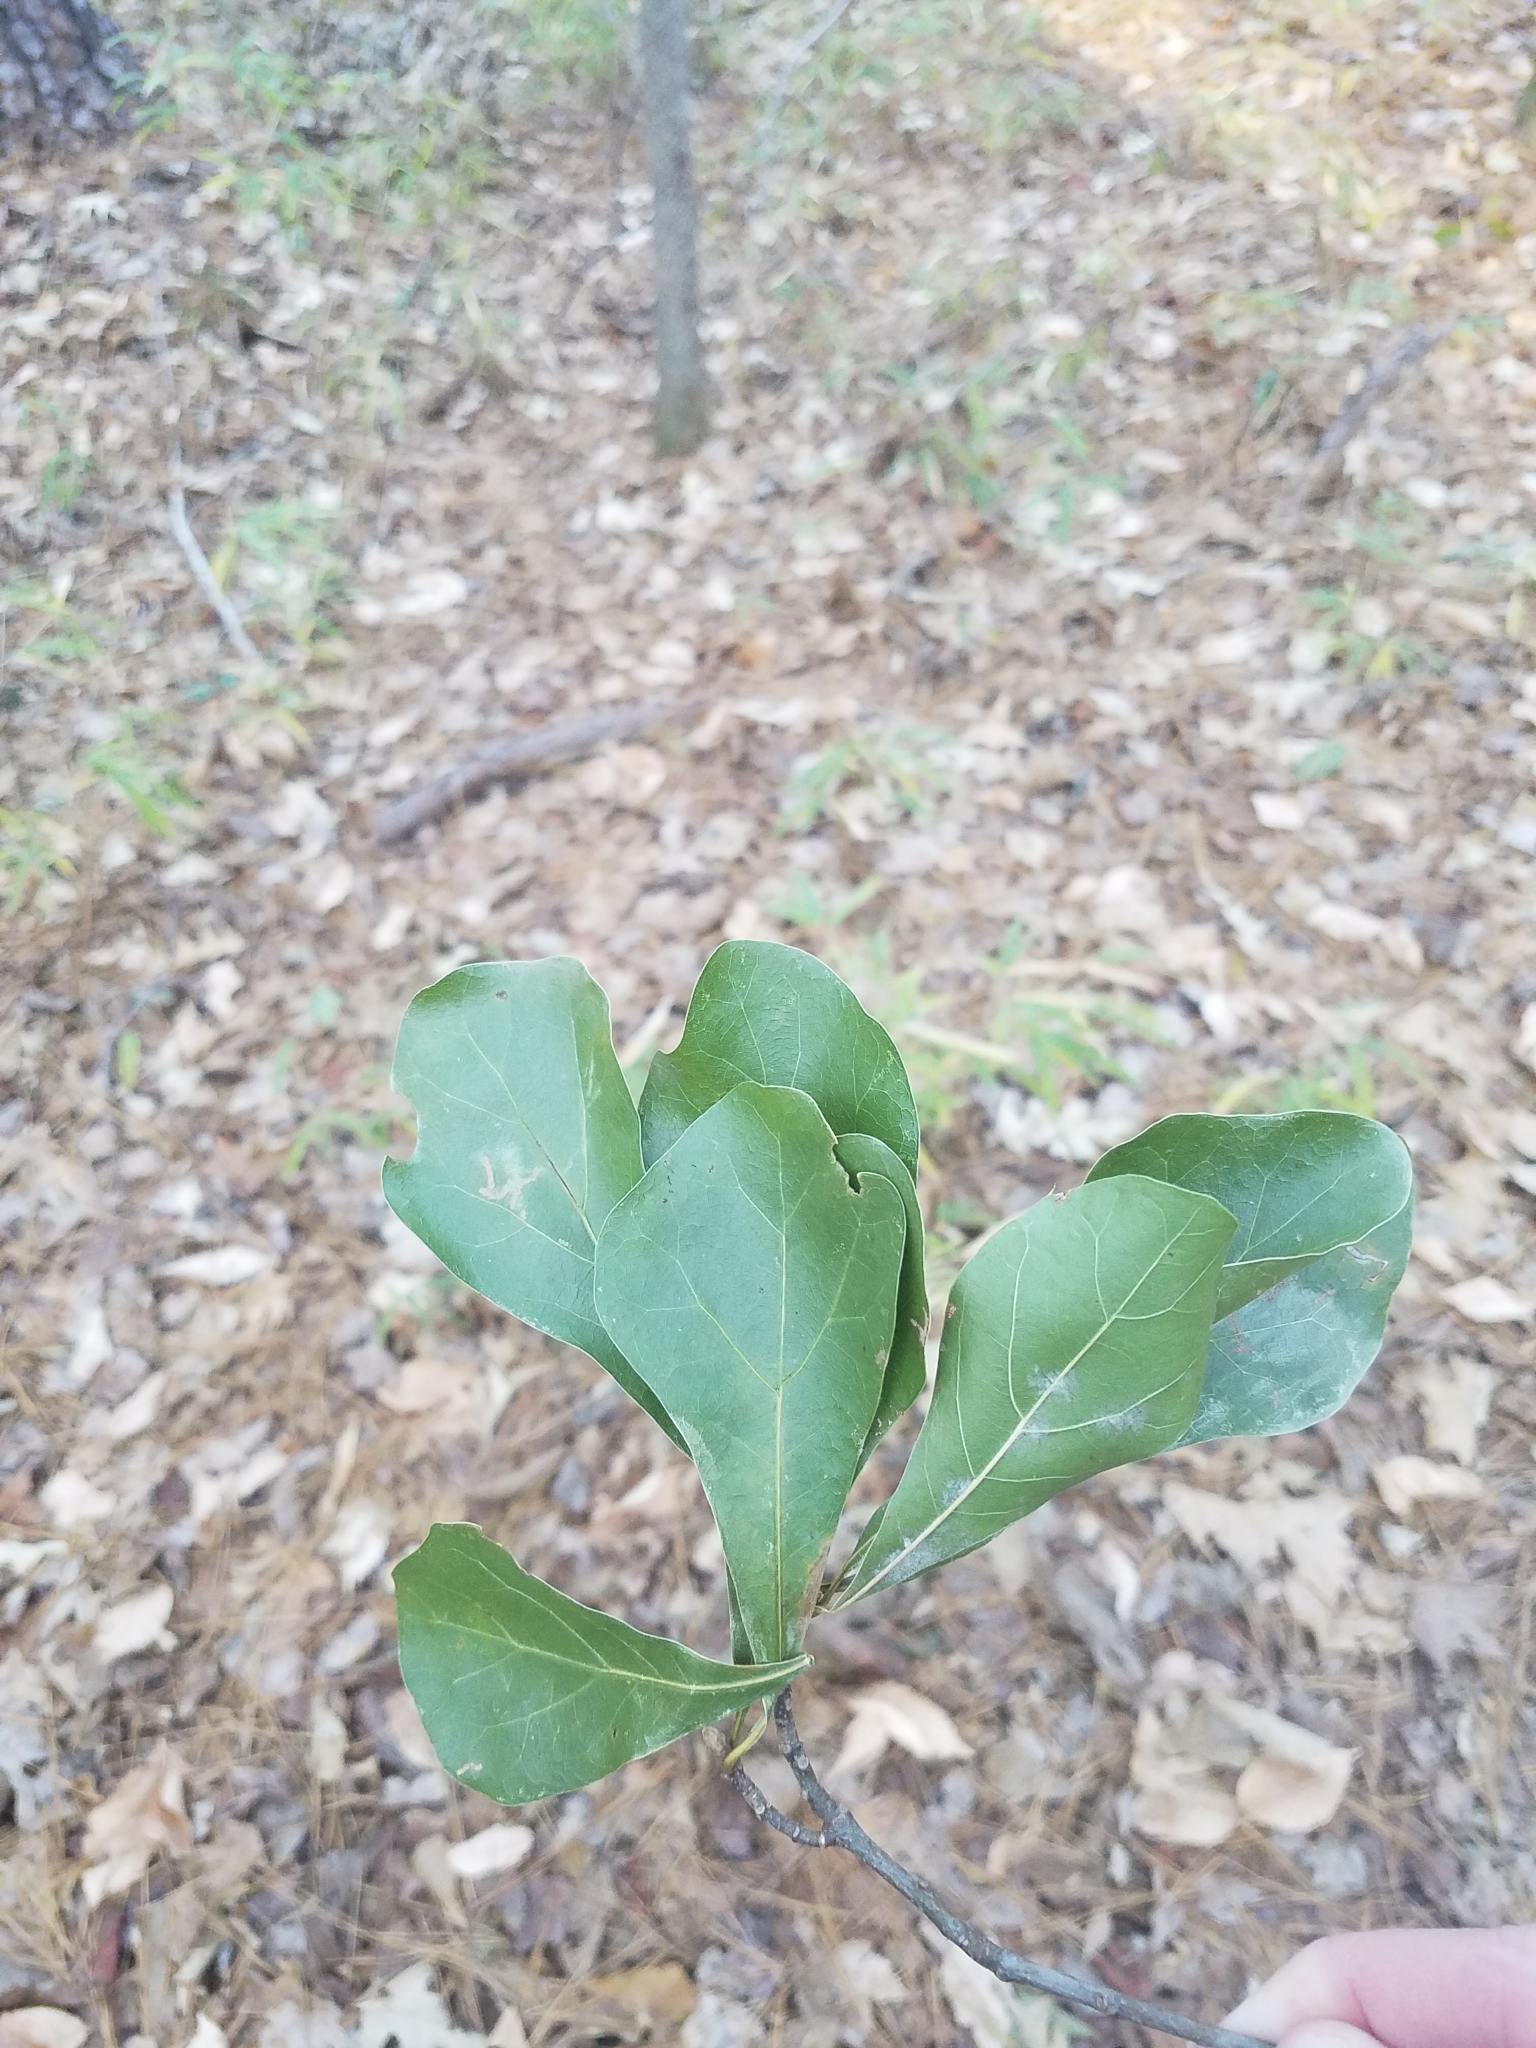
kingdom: Plantae
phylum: Tracheophyta
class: Magnoliopsida
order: Fagales
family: Fagaceae
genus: Quercus
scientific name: Quercus nigra
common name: Water oak
